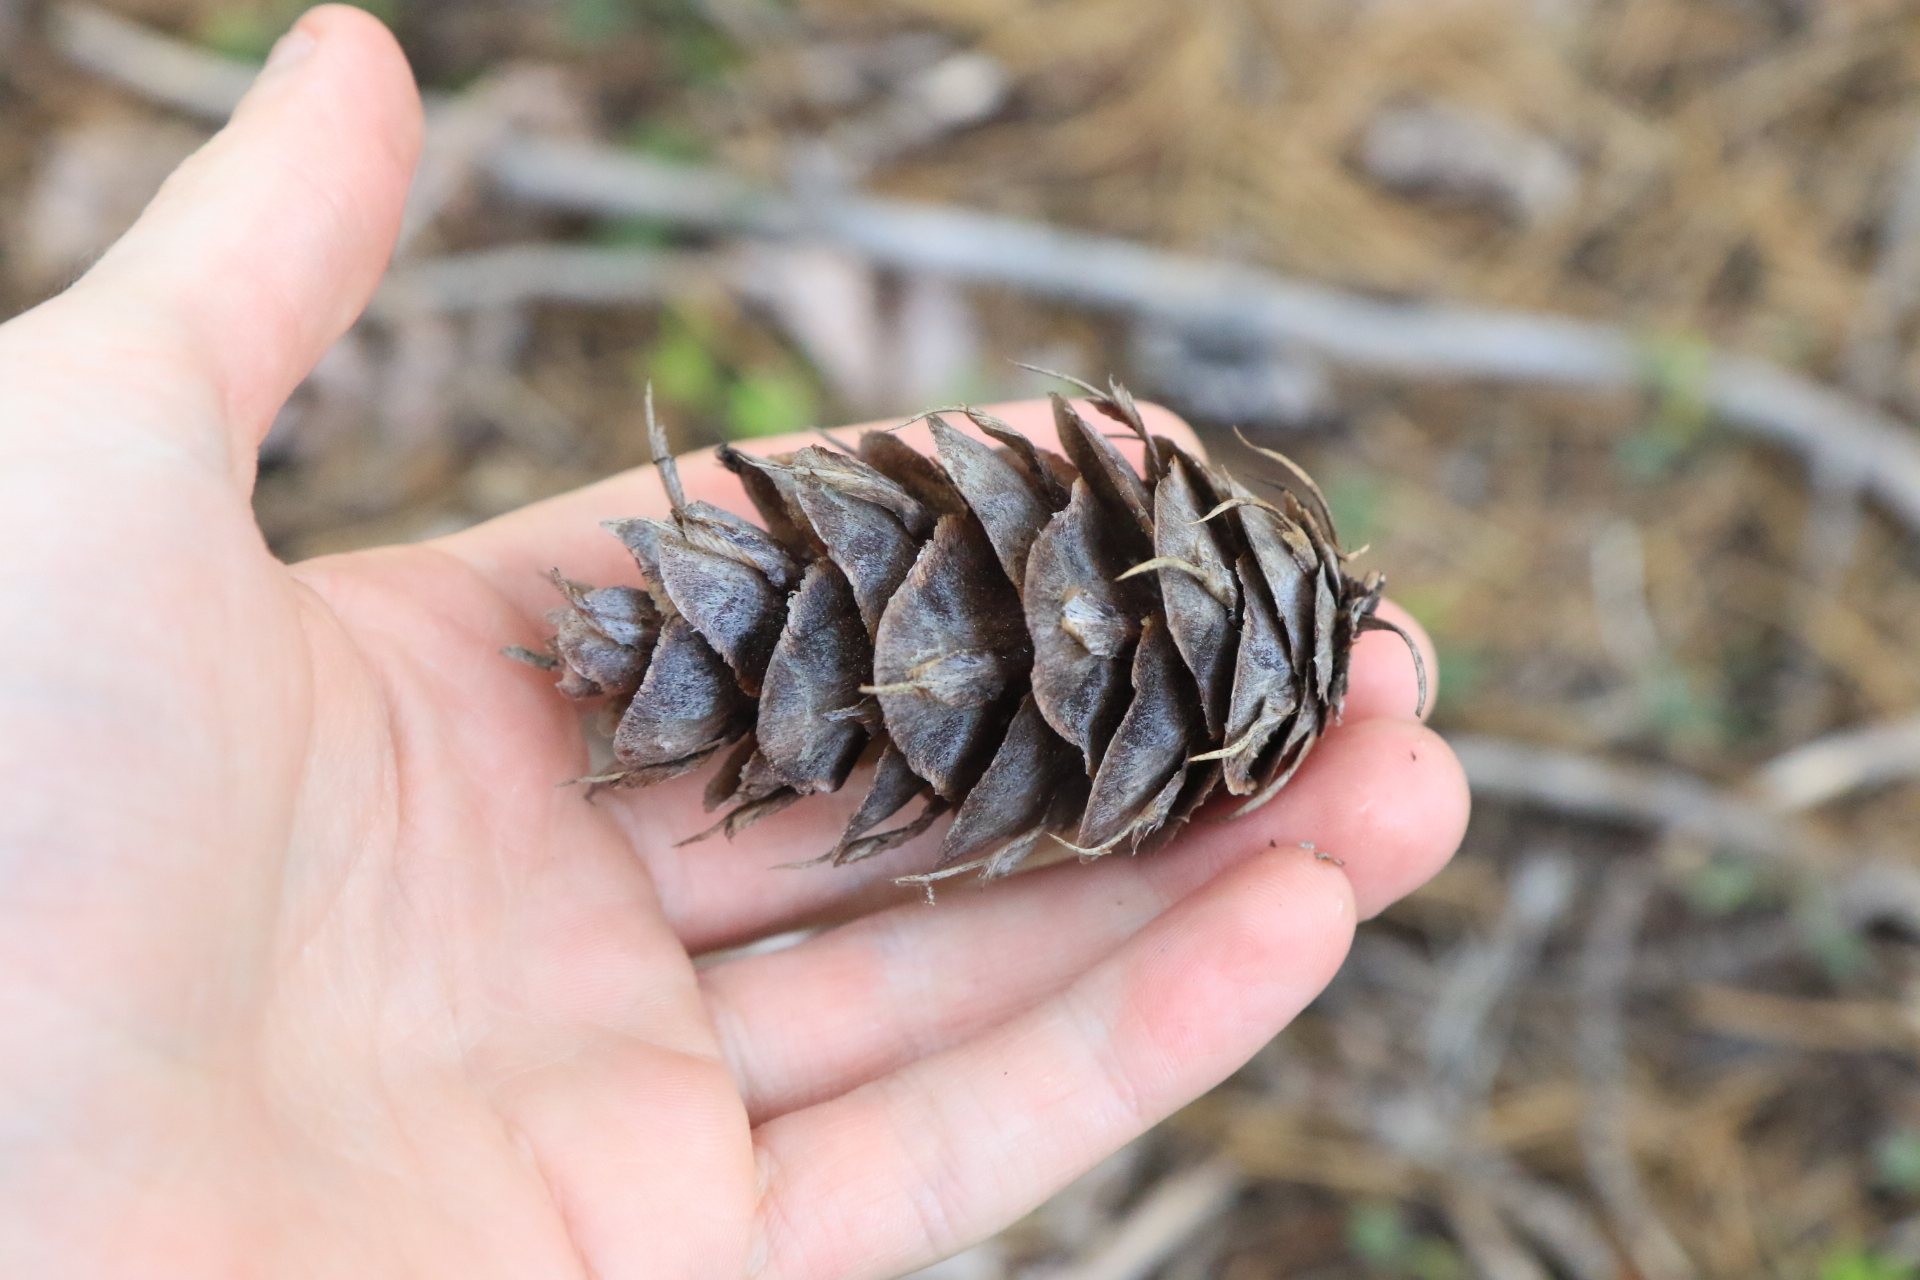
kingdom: Plantae
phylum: Tracheophyta
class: Pinopsida
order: Pinales
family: Pinaceae
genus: Pseudotsuga
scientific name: Pseudotsuga menziesii
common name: Douglas fir
